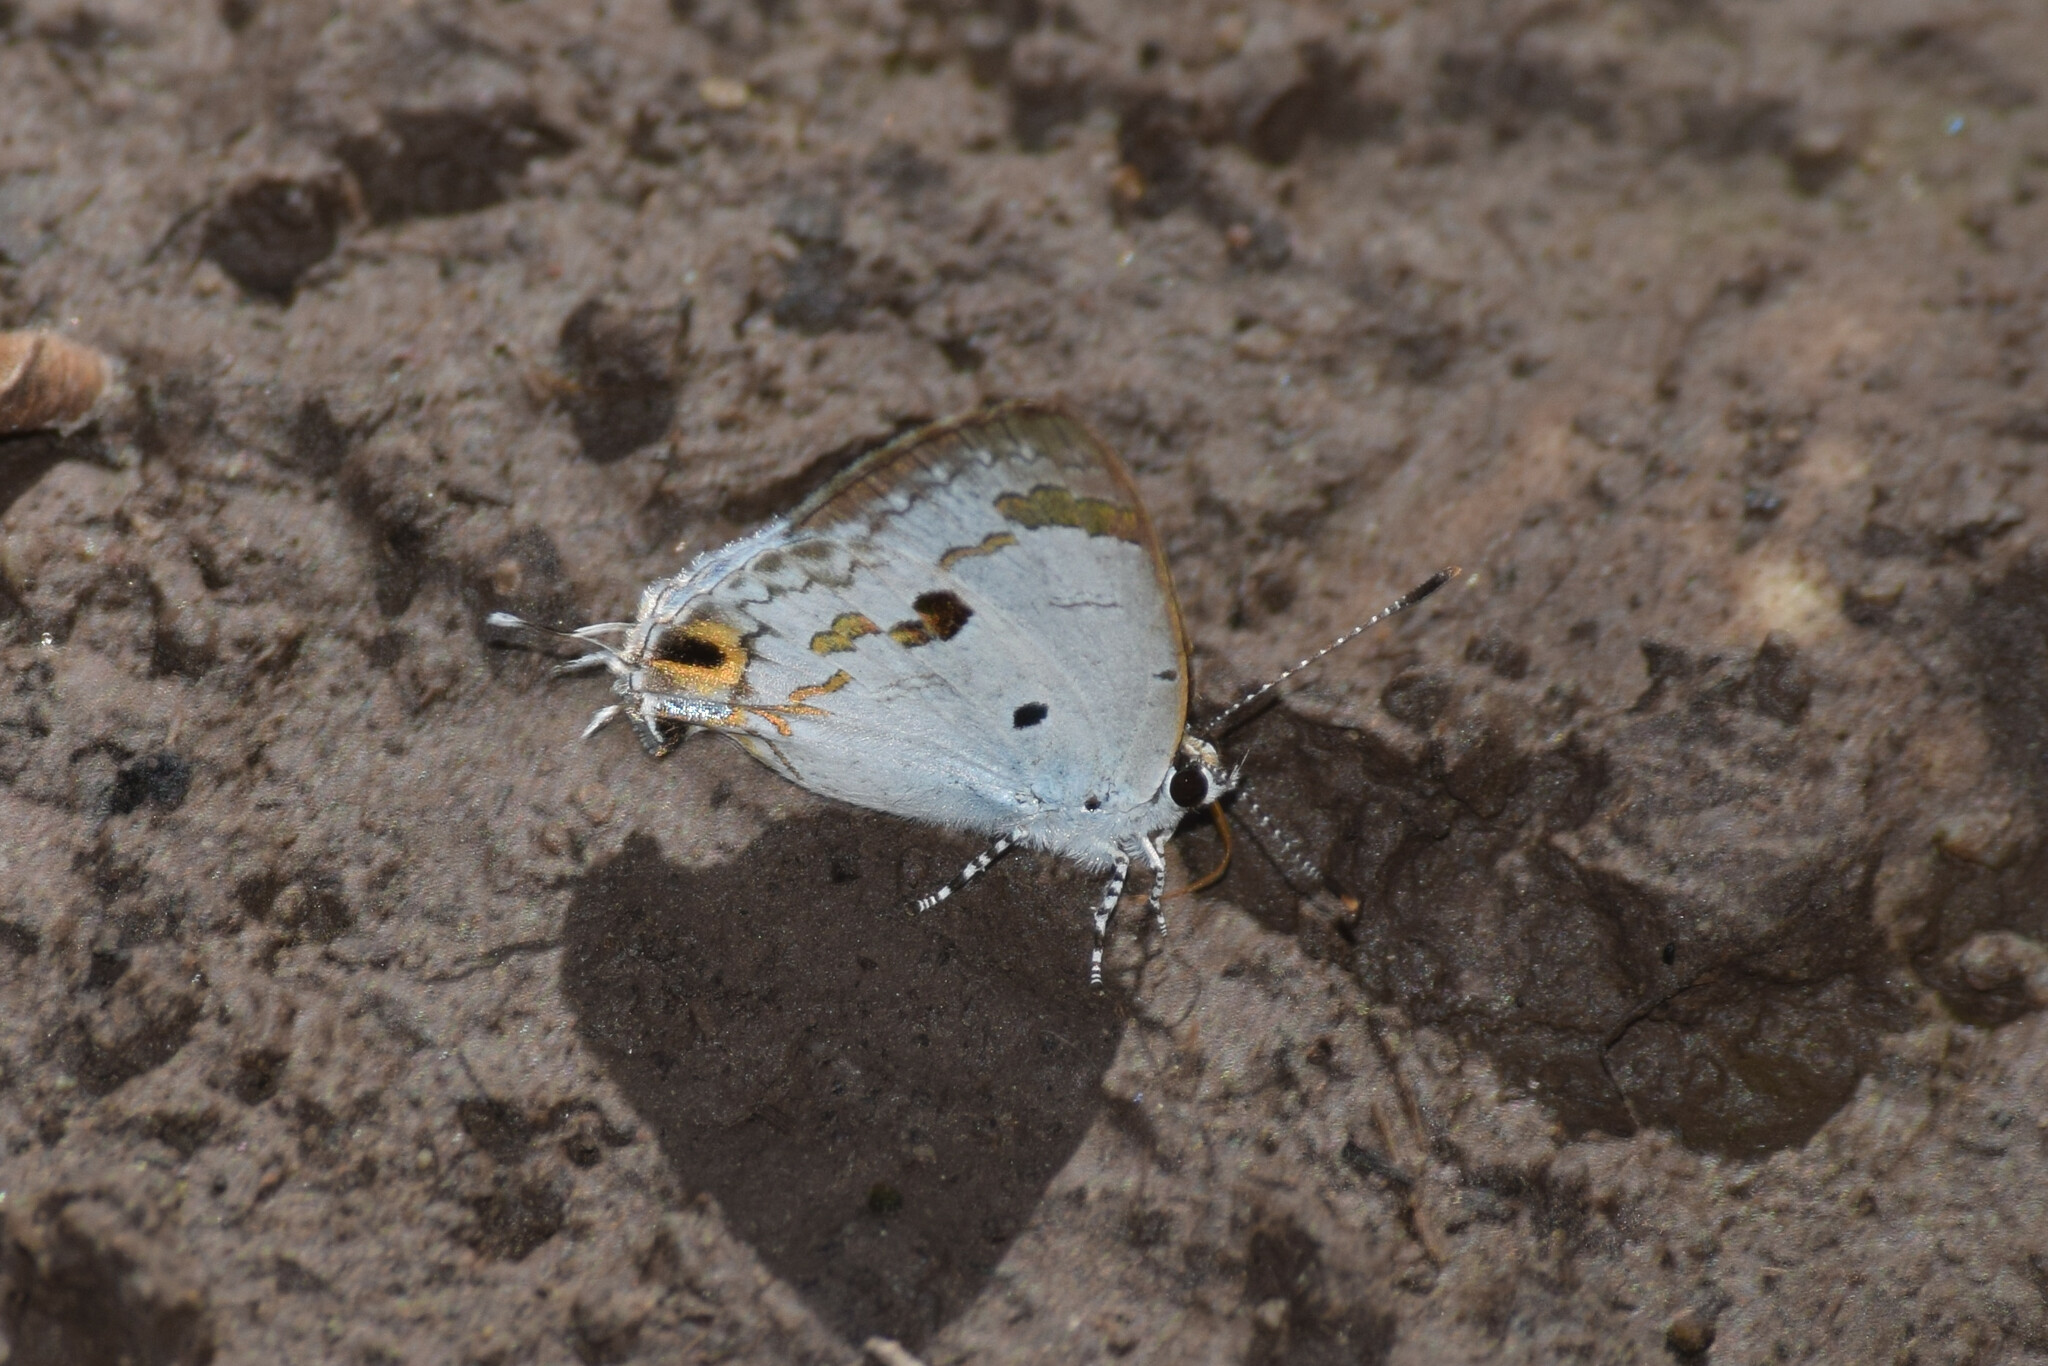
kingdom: Animalia
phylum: Arthropoda
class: Insecta
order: Lepidoptera
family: Lycaenidae
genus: Chliaria
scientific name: Chliaria othona
